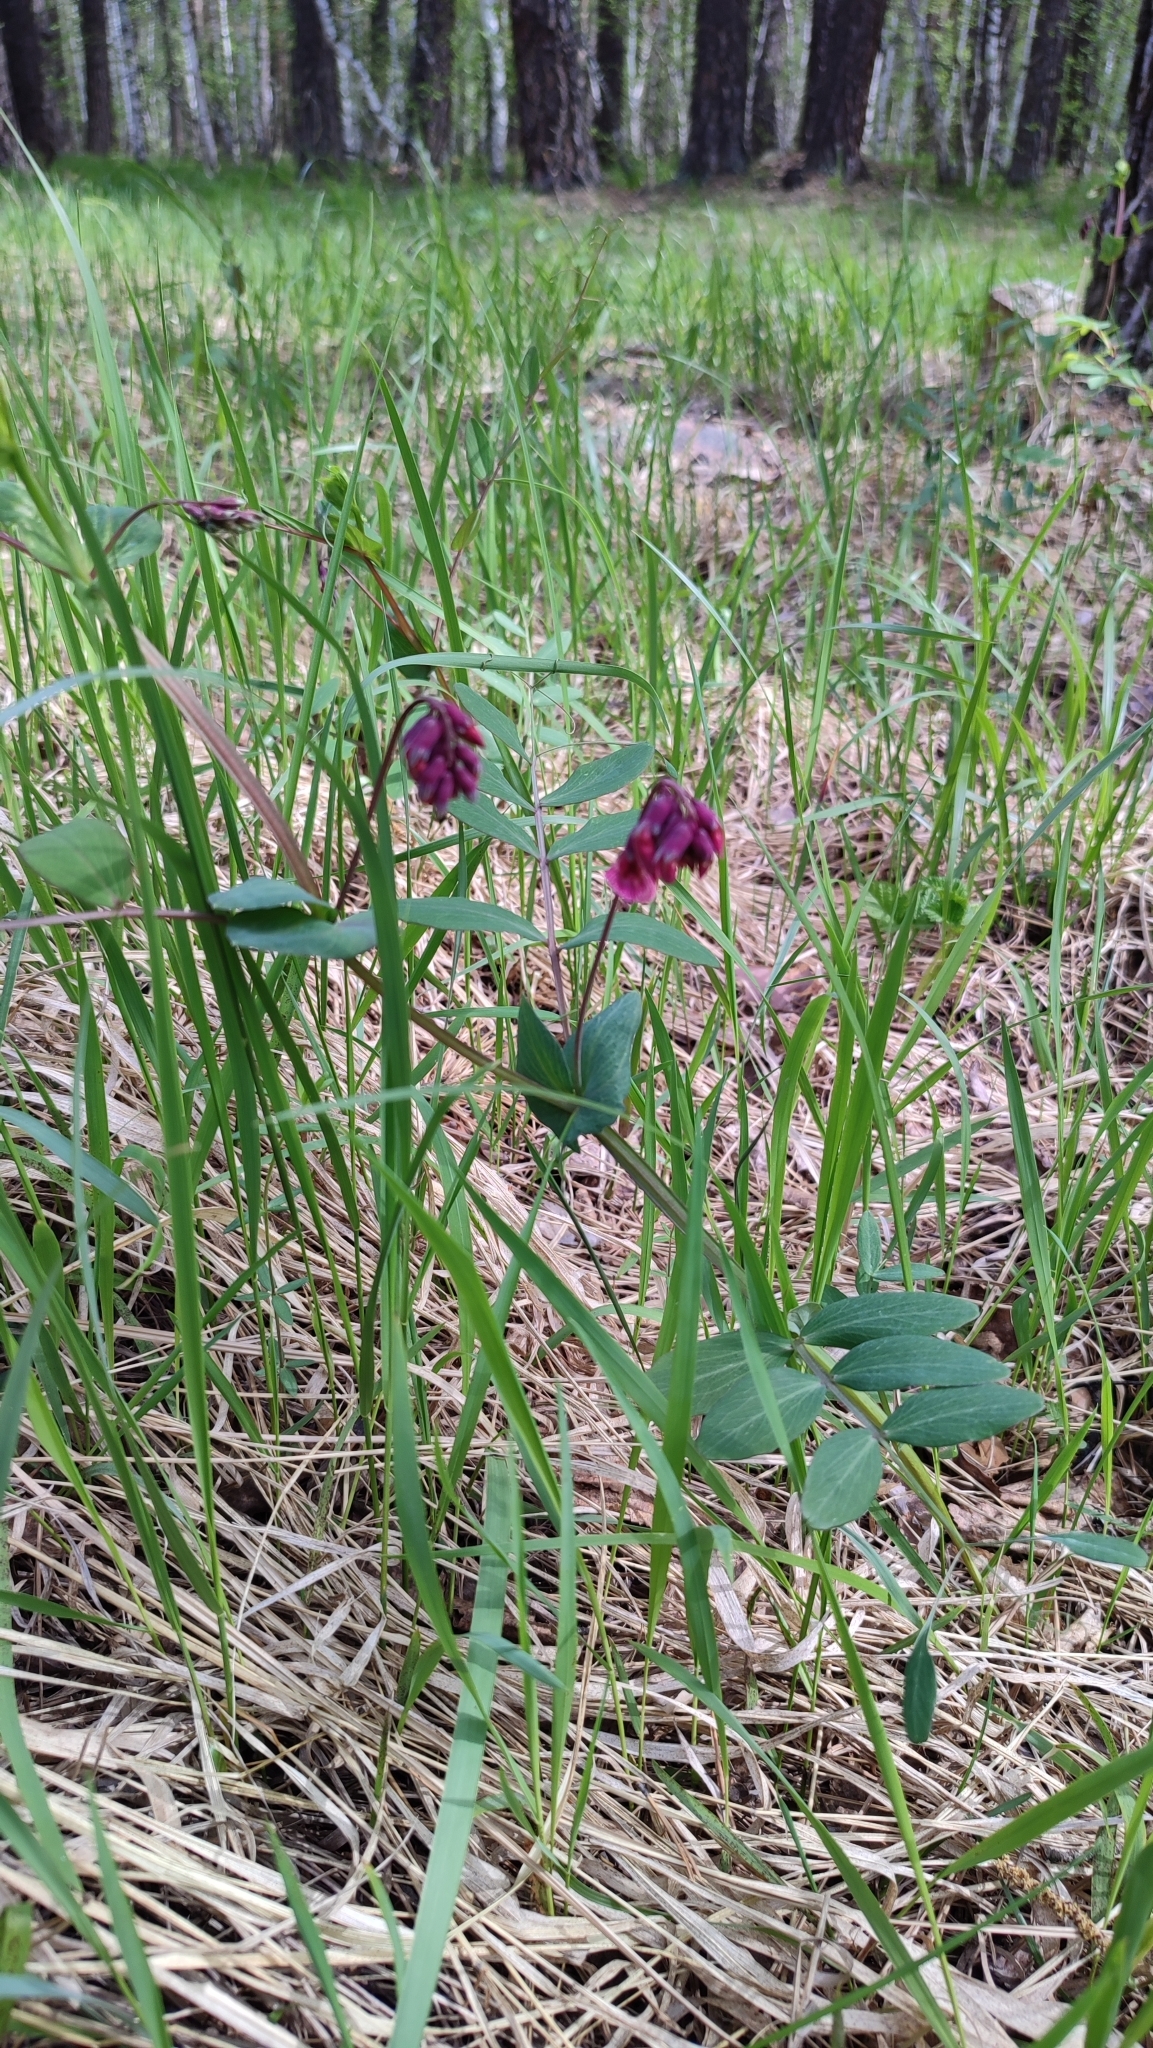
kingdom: Plantae
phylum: Tracheophyta
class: Magnoliopsida
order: Fabales
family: Fabaceae
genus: Lathyrus
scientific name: Lathyrus pisiformis
